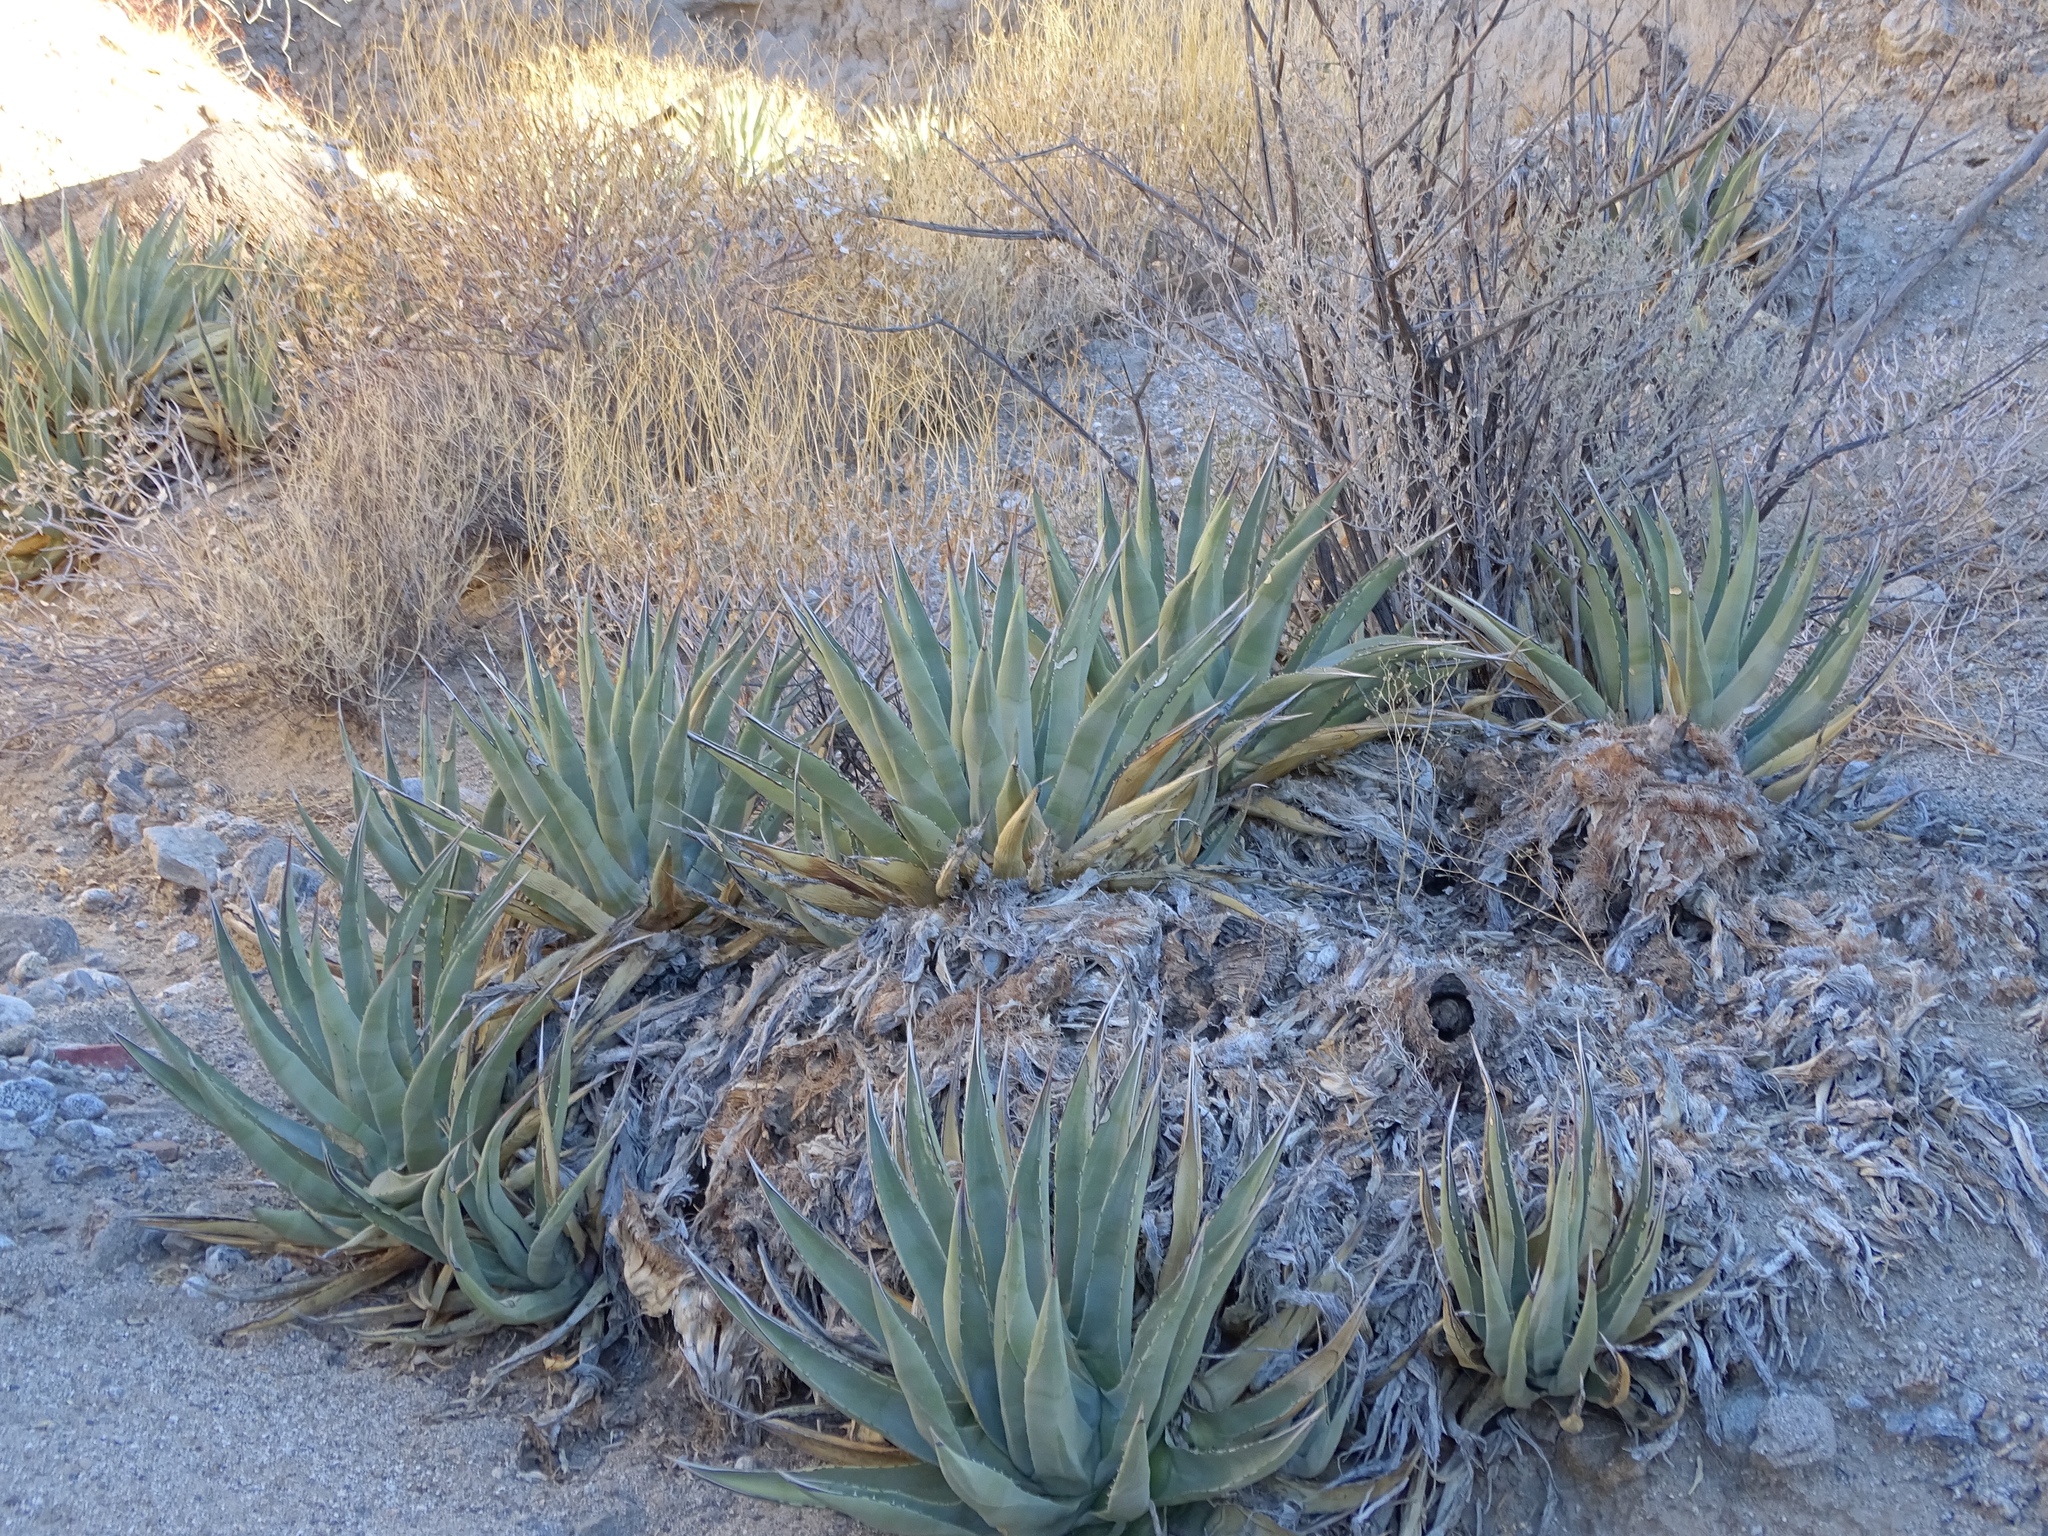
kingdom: Plantae
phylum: Tracheophyta
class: Liliopsida
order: Asparagales
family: Asparagaceae
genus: Agave
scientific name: Agave deserti
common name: Desert agave
